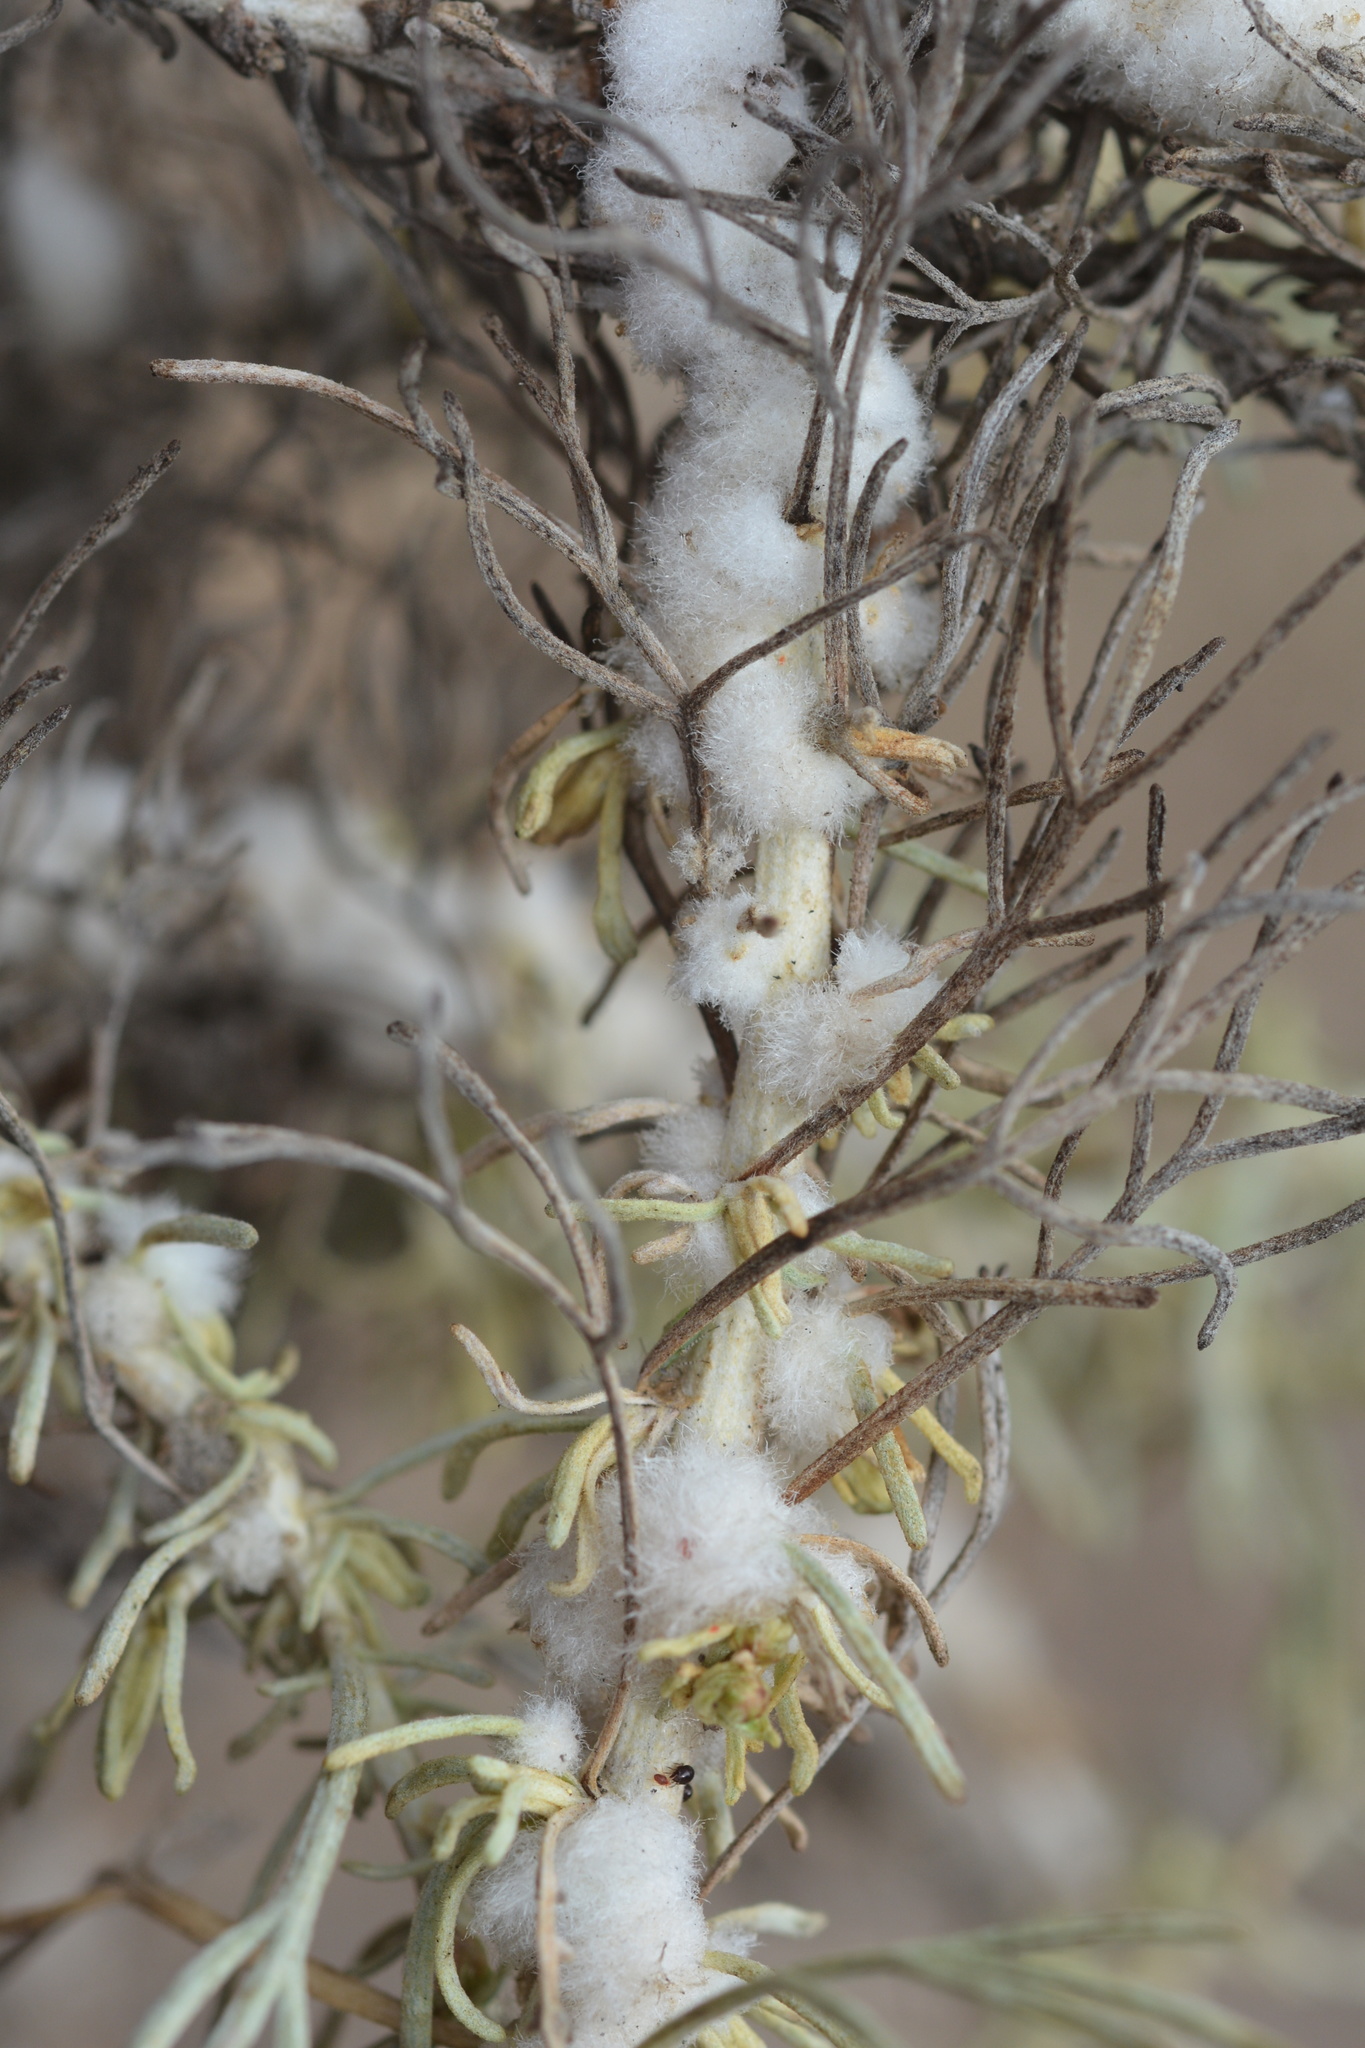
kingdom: Animalia
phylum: Arthropoda
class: Insecta
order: Diptera
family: Cecidomyiidae
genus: Rhopalomyia
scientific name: Rhopalomyia floccosa
